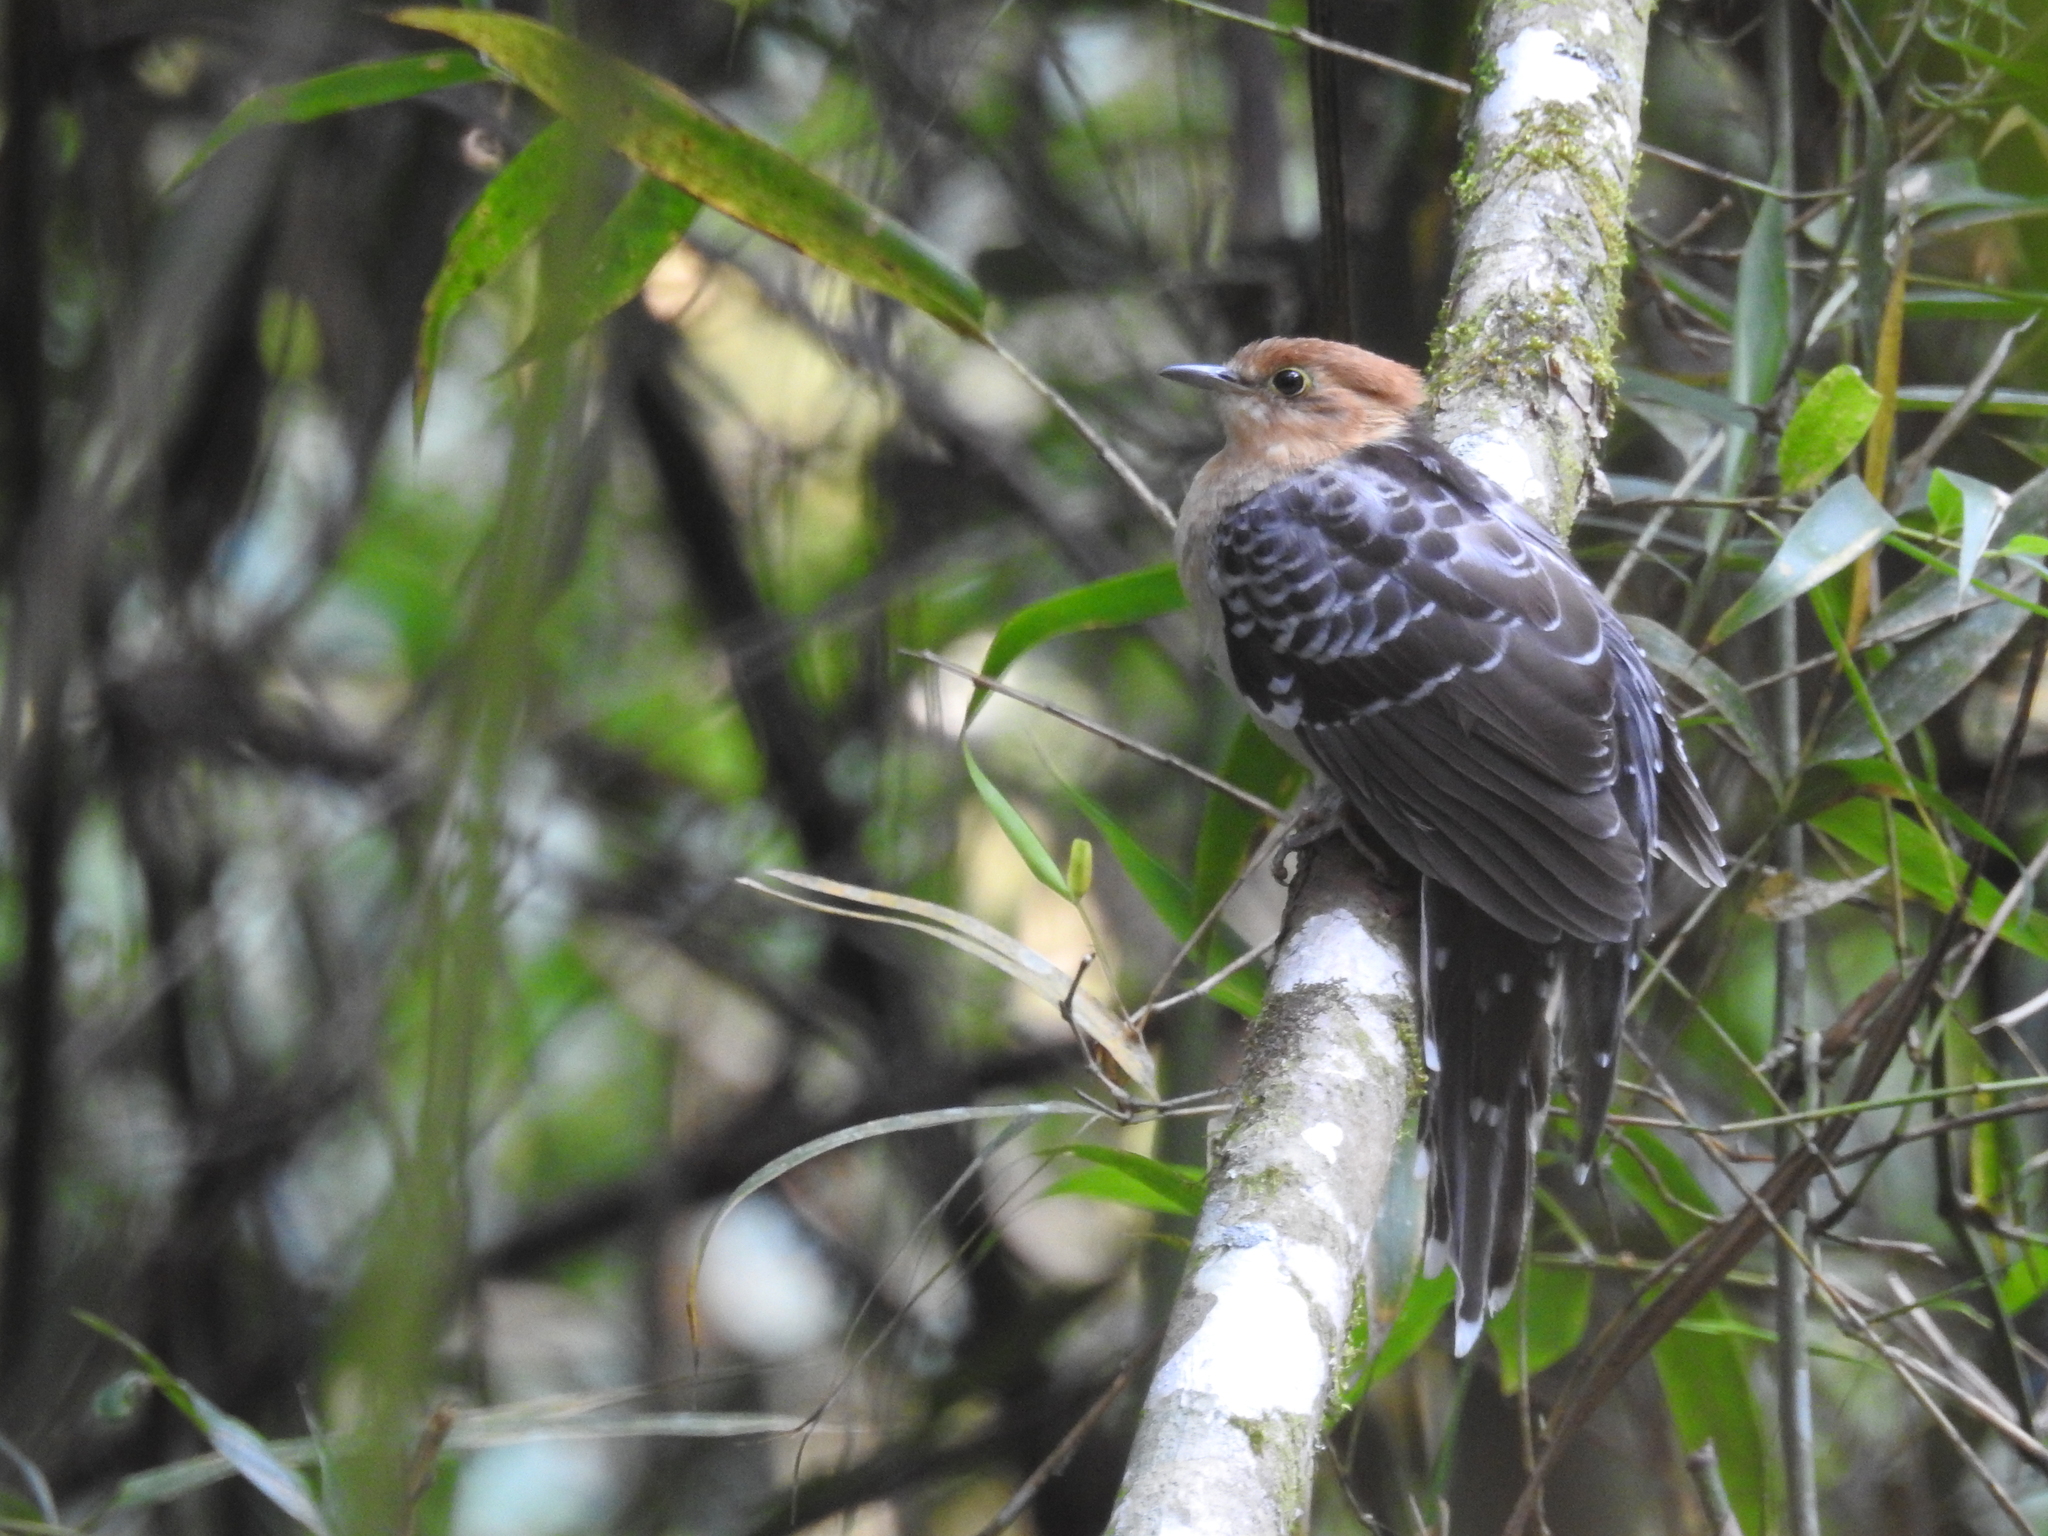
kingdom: Animalia
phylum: Chordata
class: Aves
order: Cuculiformes
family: Cuculidae
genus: Dromococcyx
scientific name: Dromococcyx pavoninus
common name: Pavonine cuckoo
